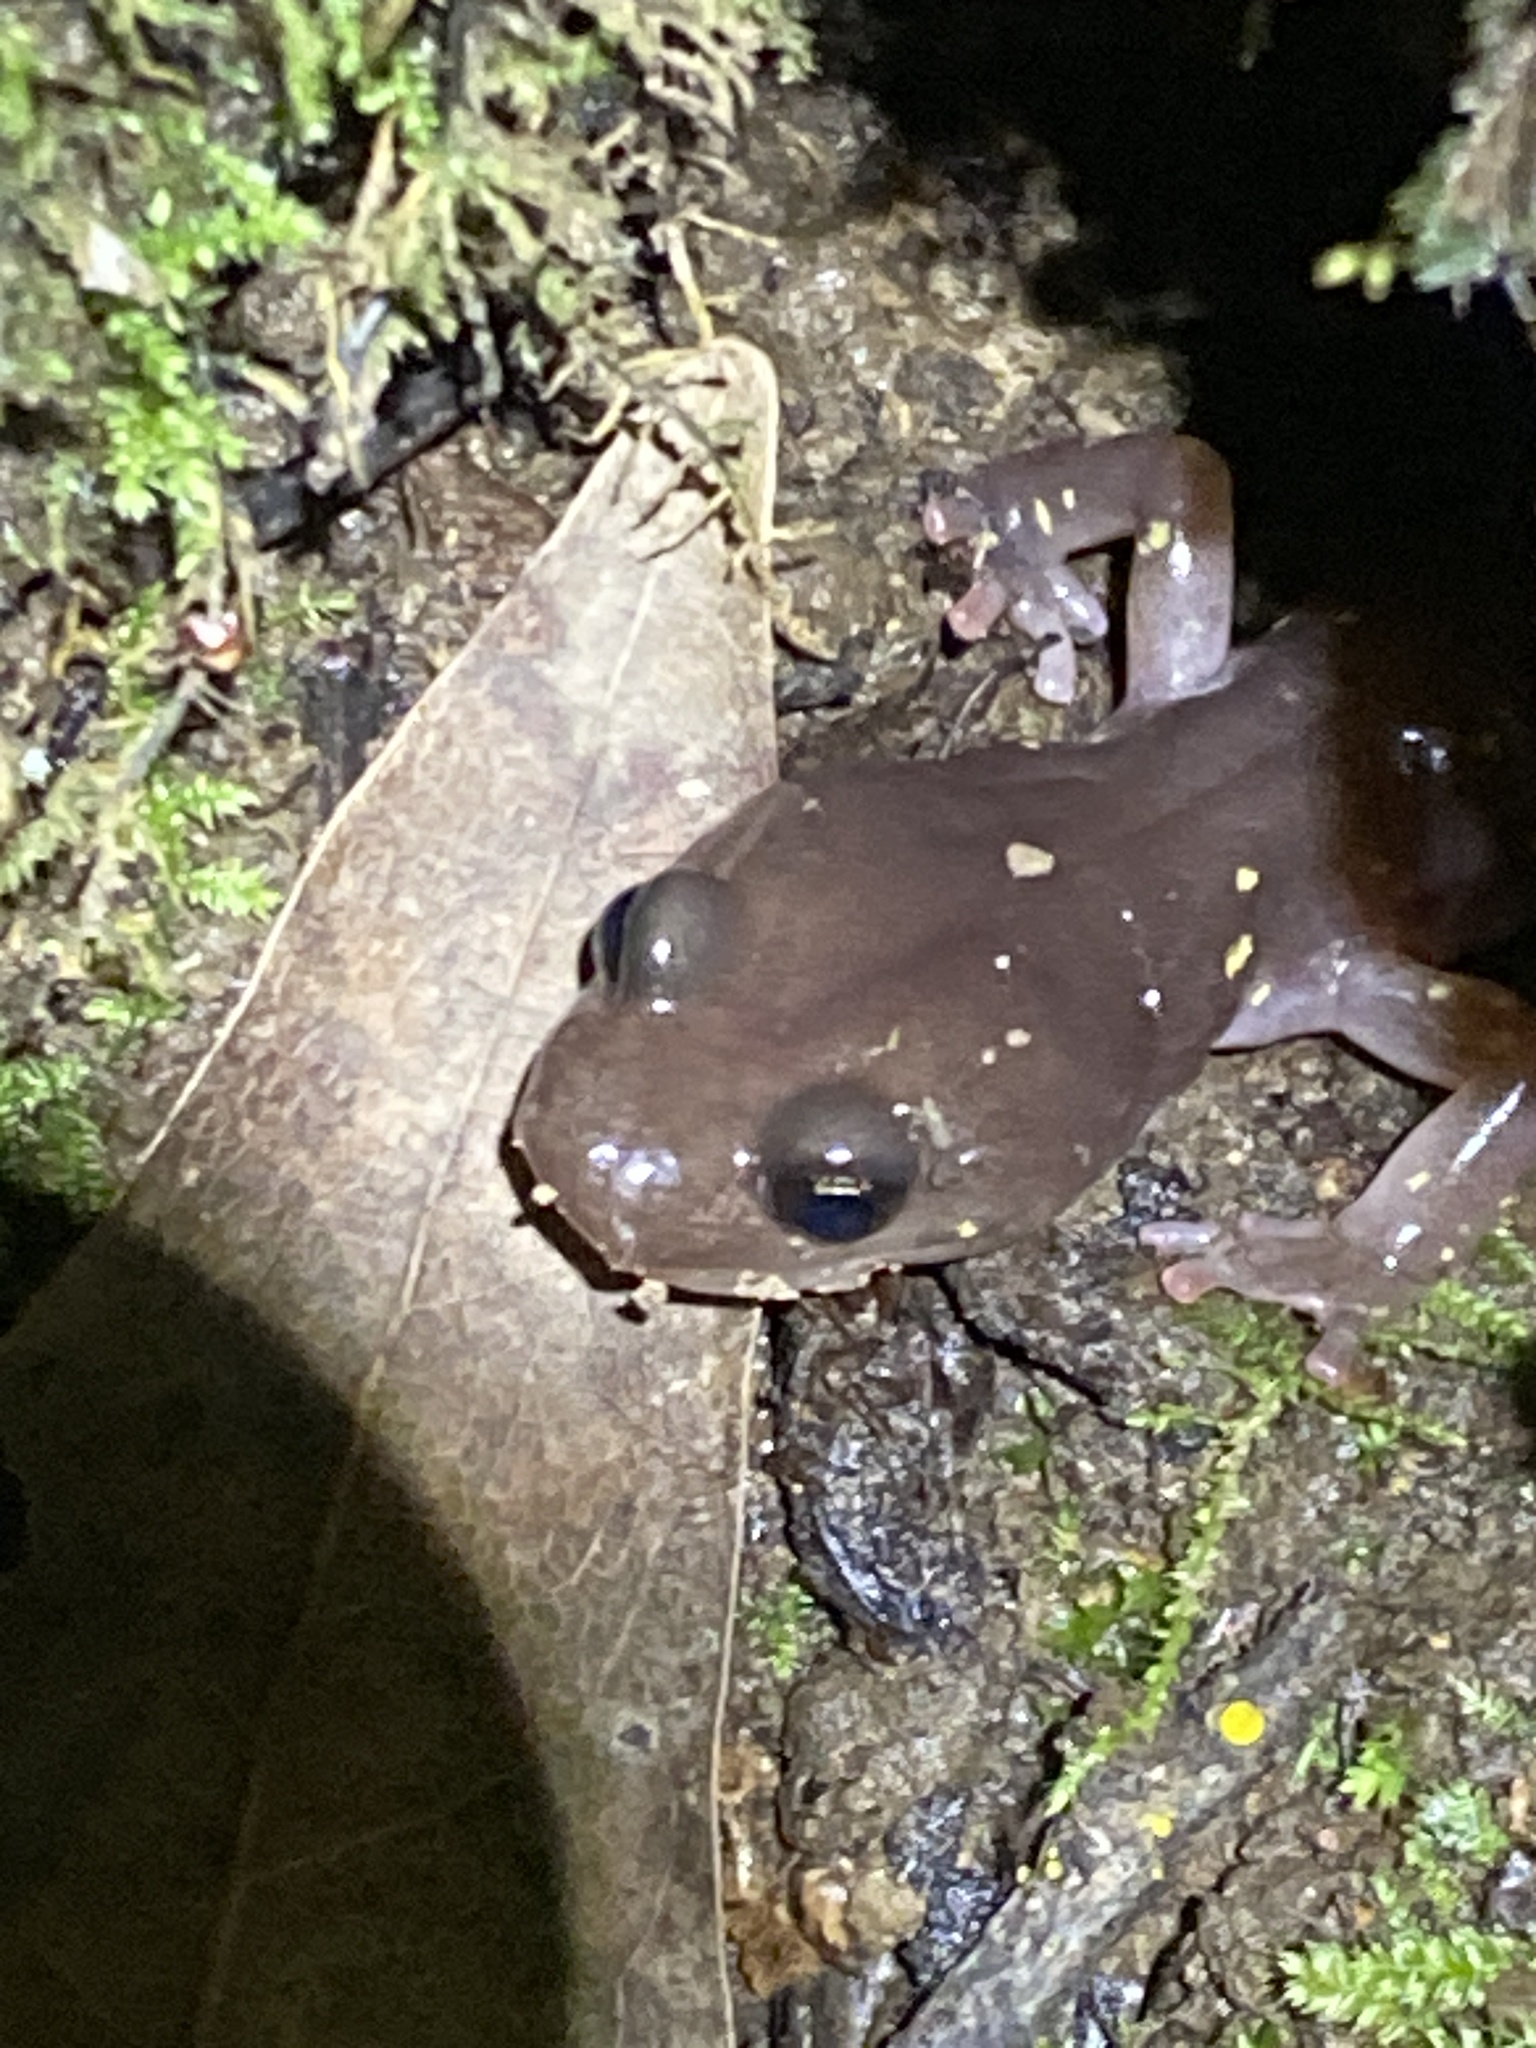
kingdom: Animalia
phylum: Chordata
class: Amphibia
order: Caudata
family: Plethodontidae
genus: Aneides
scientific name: Aneides lugubris
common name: Arboreal salamander
